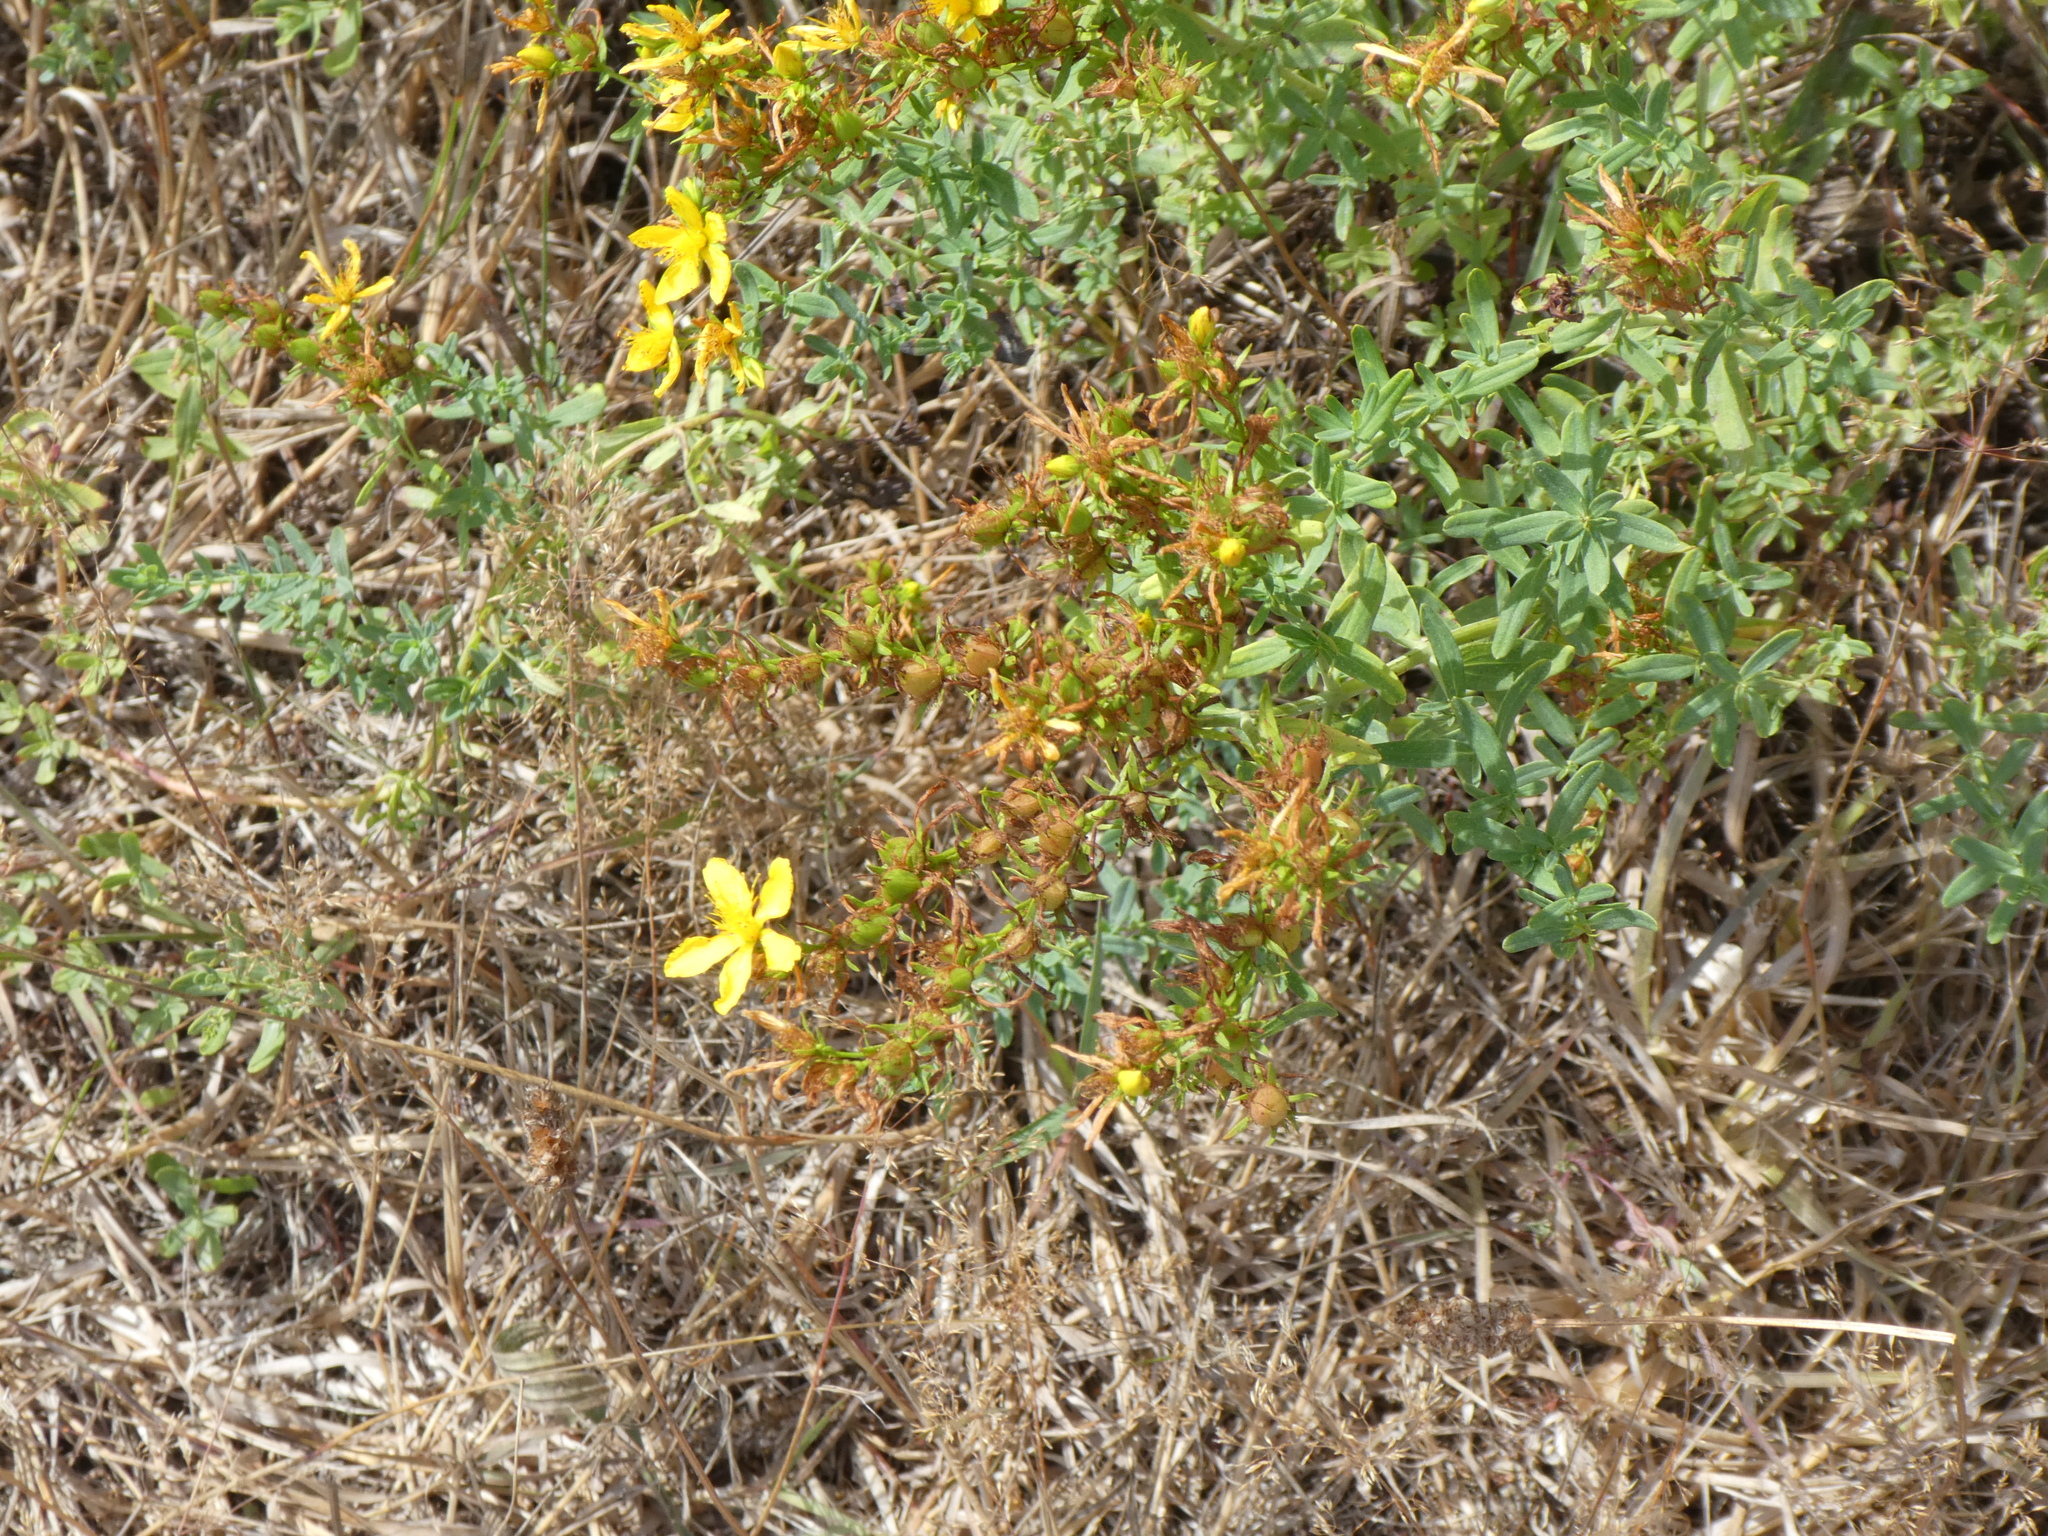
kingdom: Plantae
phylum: Tracheophyta
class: Magnoliopsida
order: Malpighiales
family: Hypericaceae
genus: Hypericum
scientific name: Hypericum perforatum
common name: Common st. johnswort
